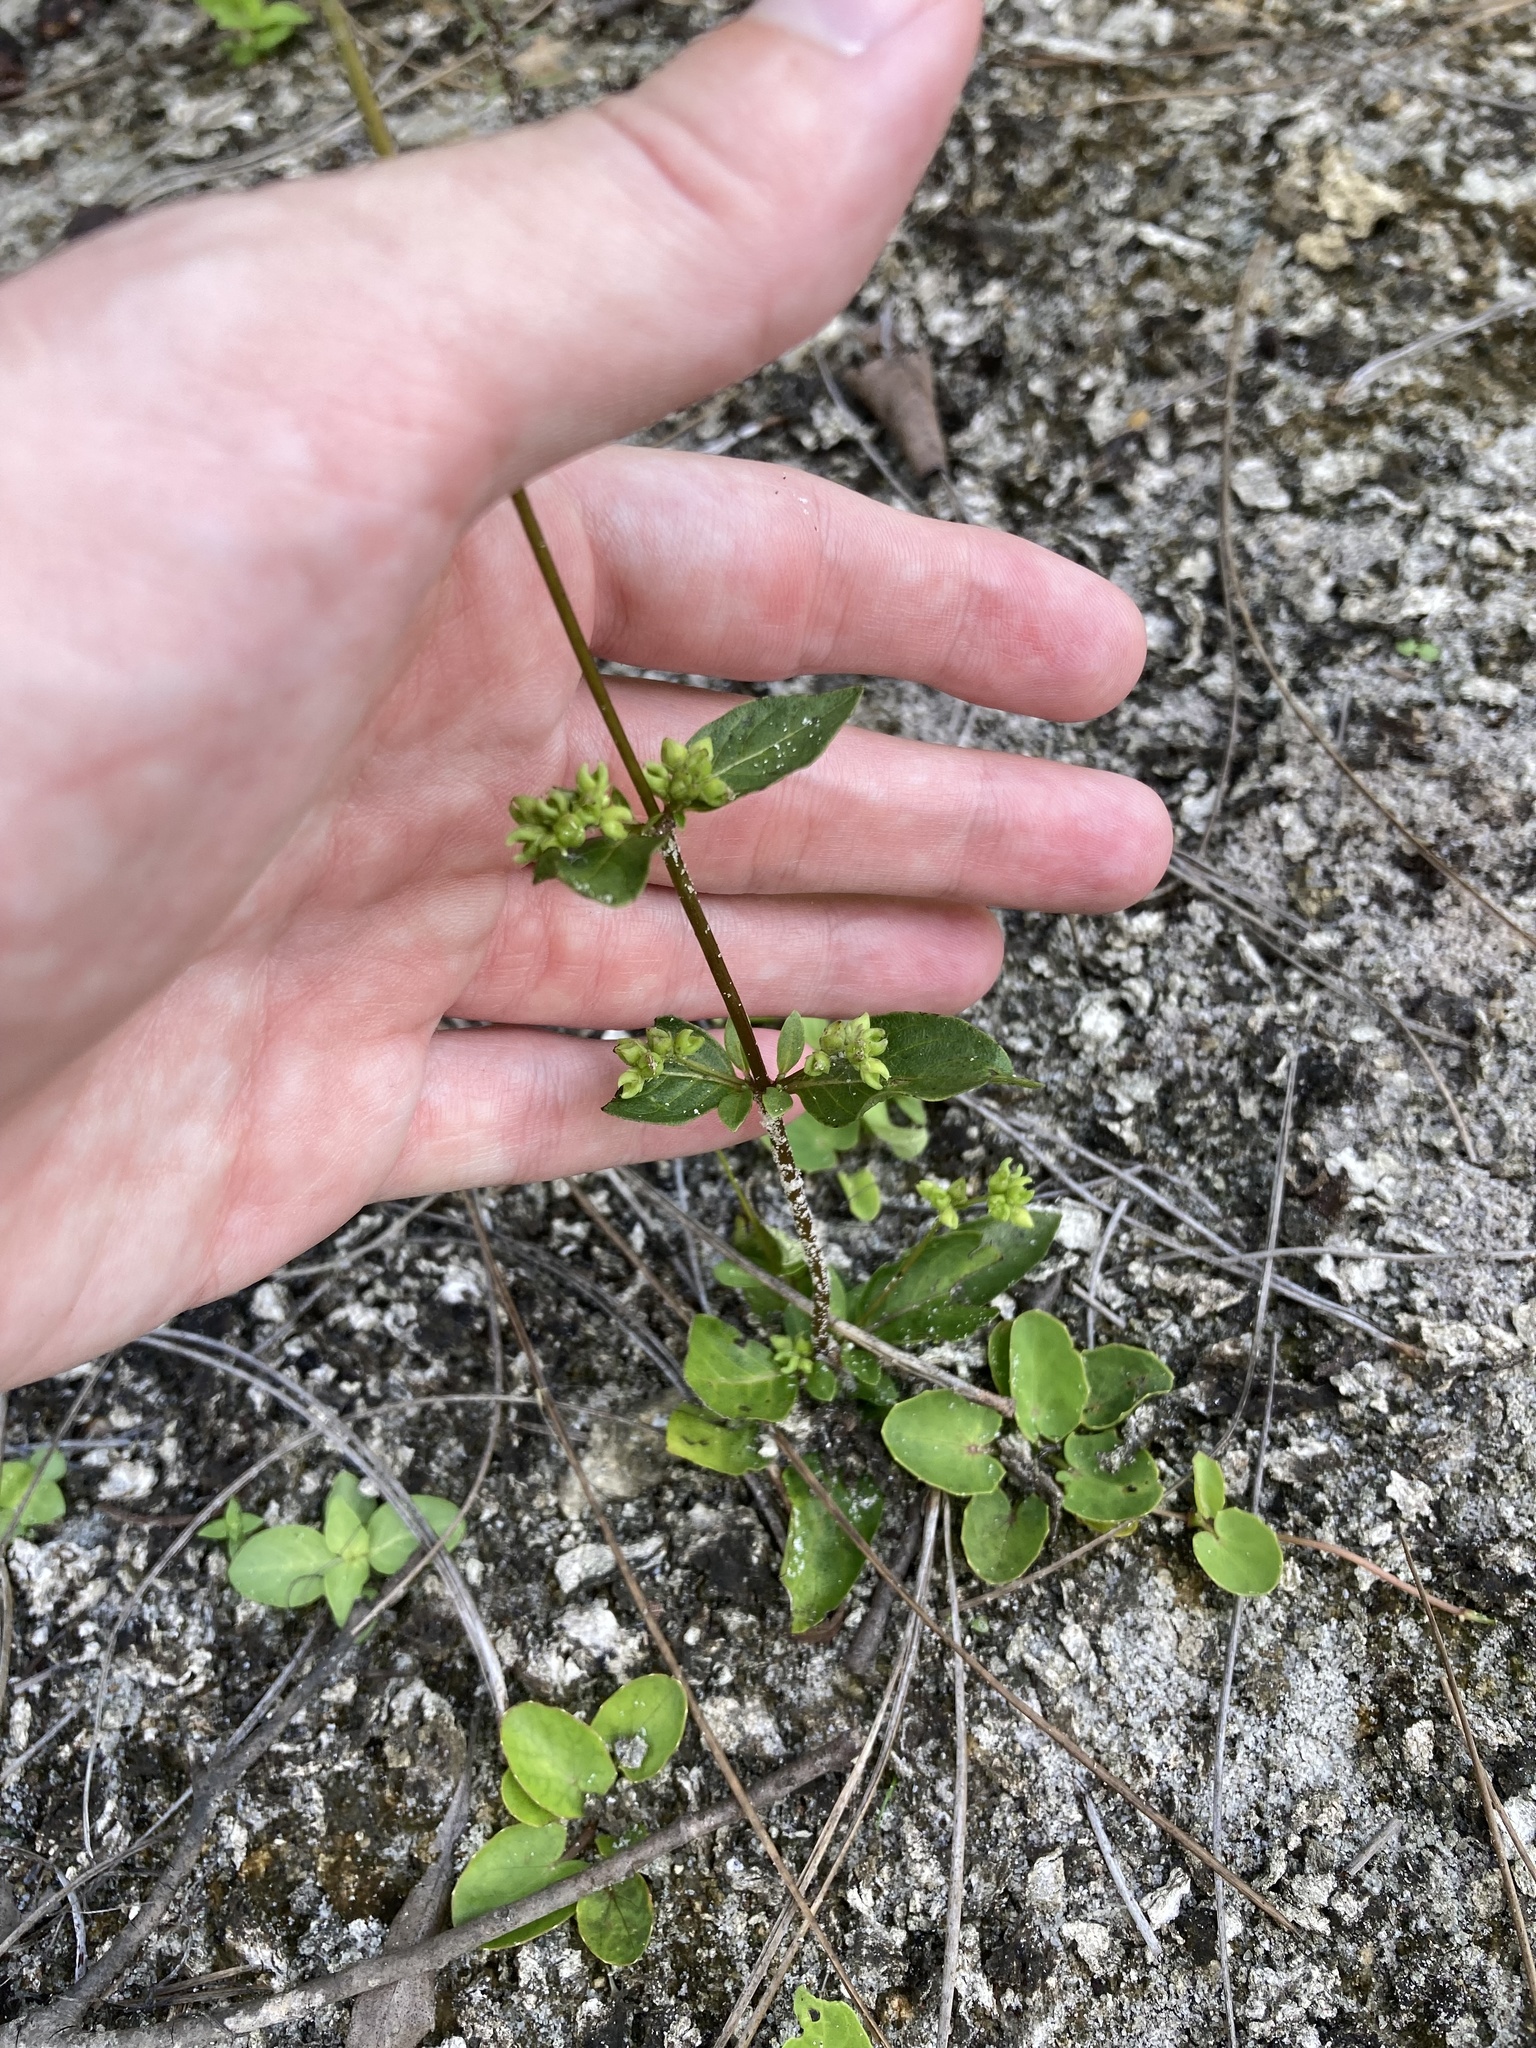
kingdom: Plantae
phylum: Tracheophyta
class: Magnoliopsida
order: Gentianales
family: Loganiaceae
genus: Mitreola
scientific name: Mitreola petiolata
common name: Lax hornpod
